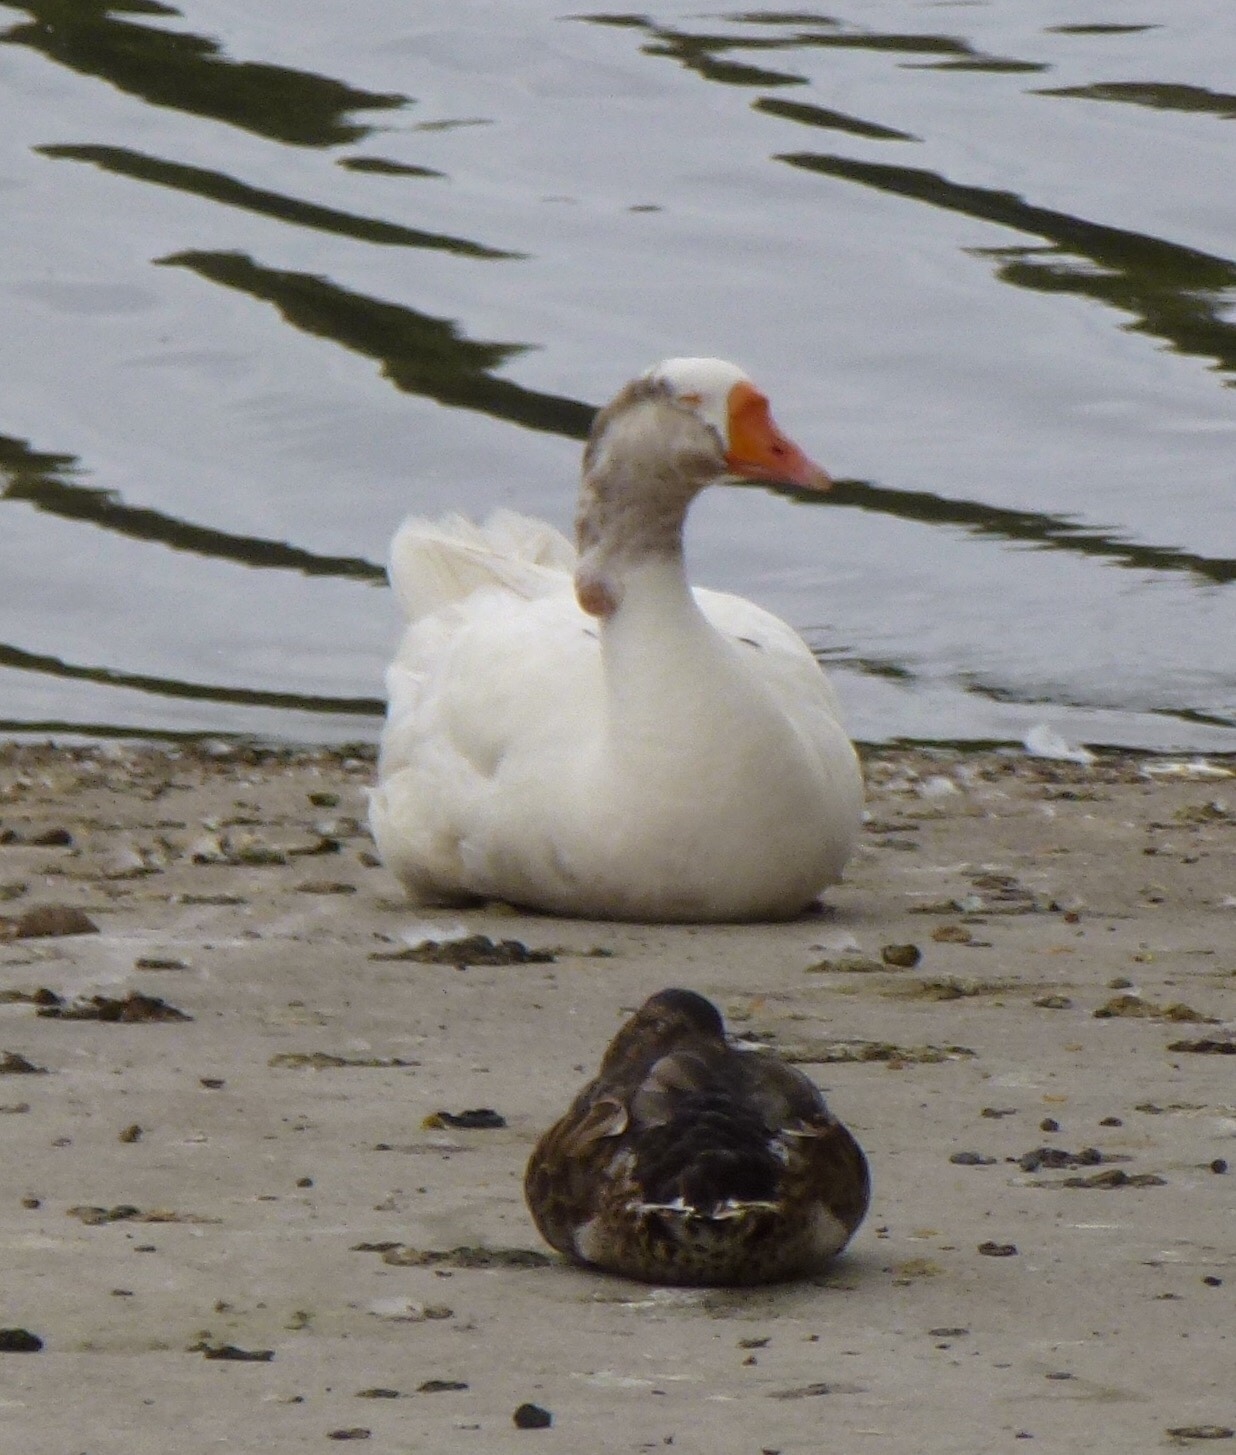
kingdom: Animalia
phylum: Chordata
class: Aves
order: Anseriformes
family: Anatidae
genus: Anser
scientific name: Anser
